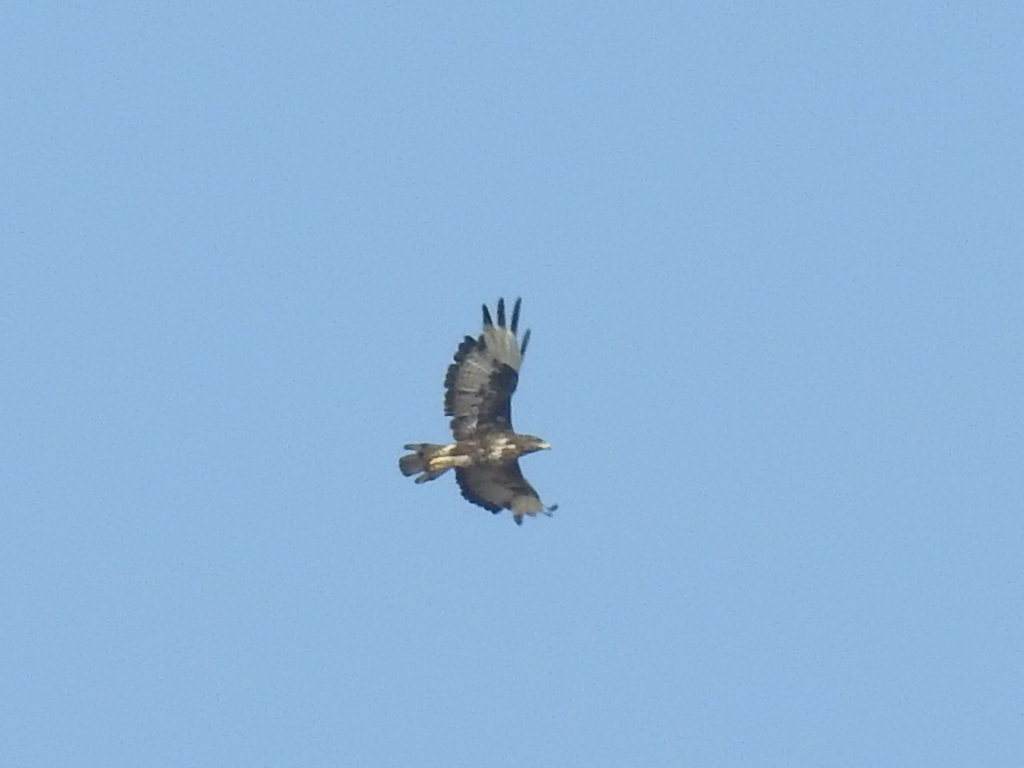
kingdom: Animalia
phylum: Chordata
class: Aves
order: Accipitriformes
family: Accipitridae
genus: Buteo
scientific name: Buteo buteo
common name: Common buzzard
